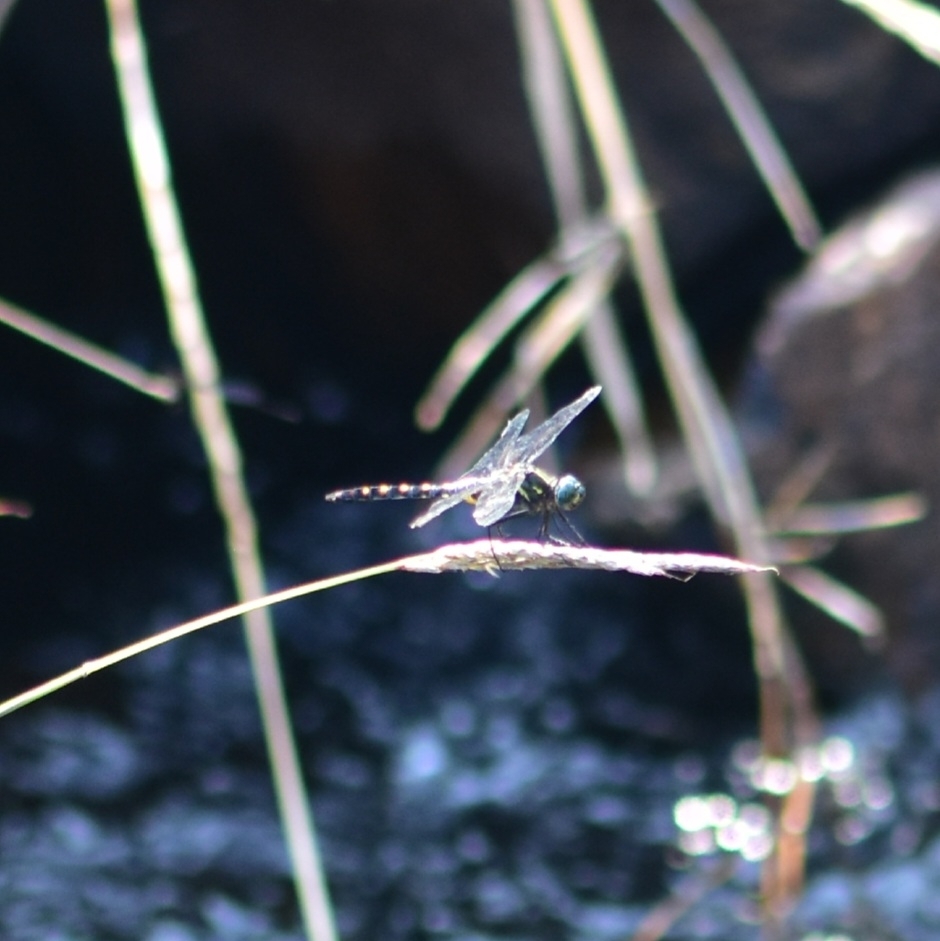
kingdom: Animalia
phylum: Arthropoda
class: Insecta
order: Odonata
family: Libellulidae
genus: Onychothemis
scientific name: Onychothemis testacea
